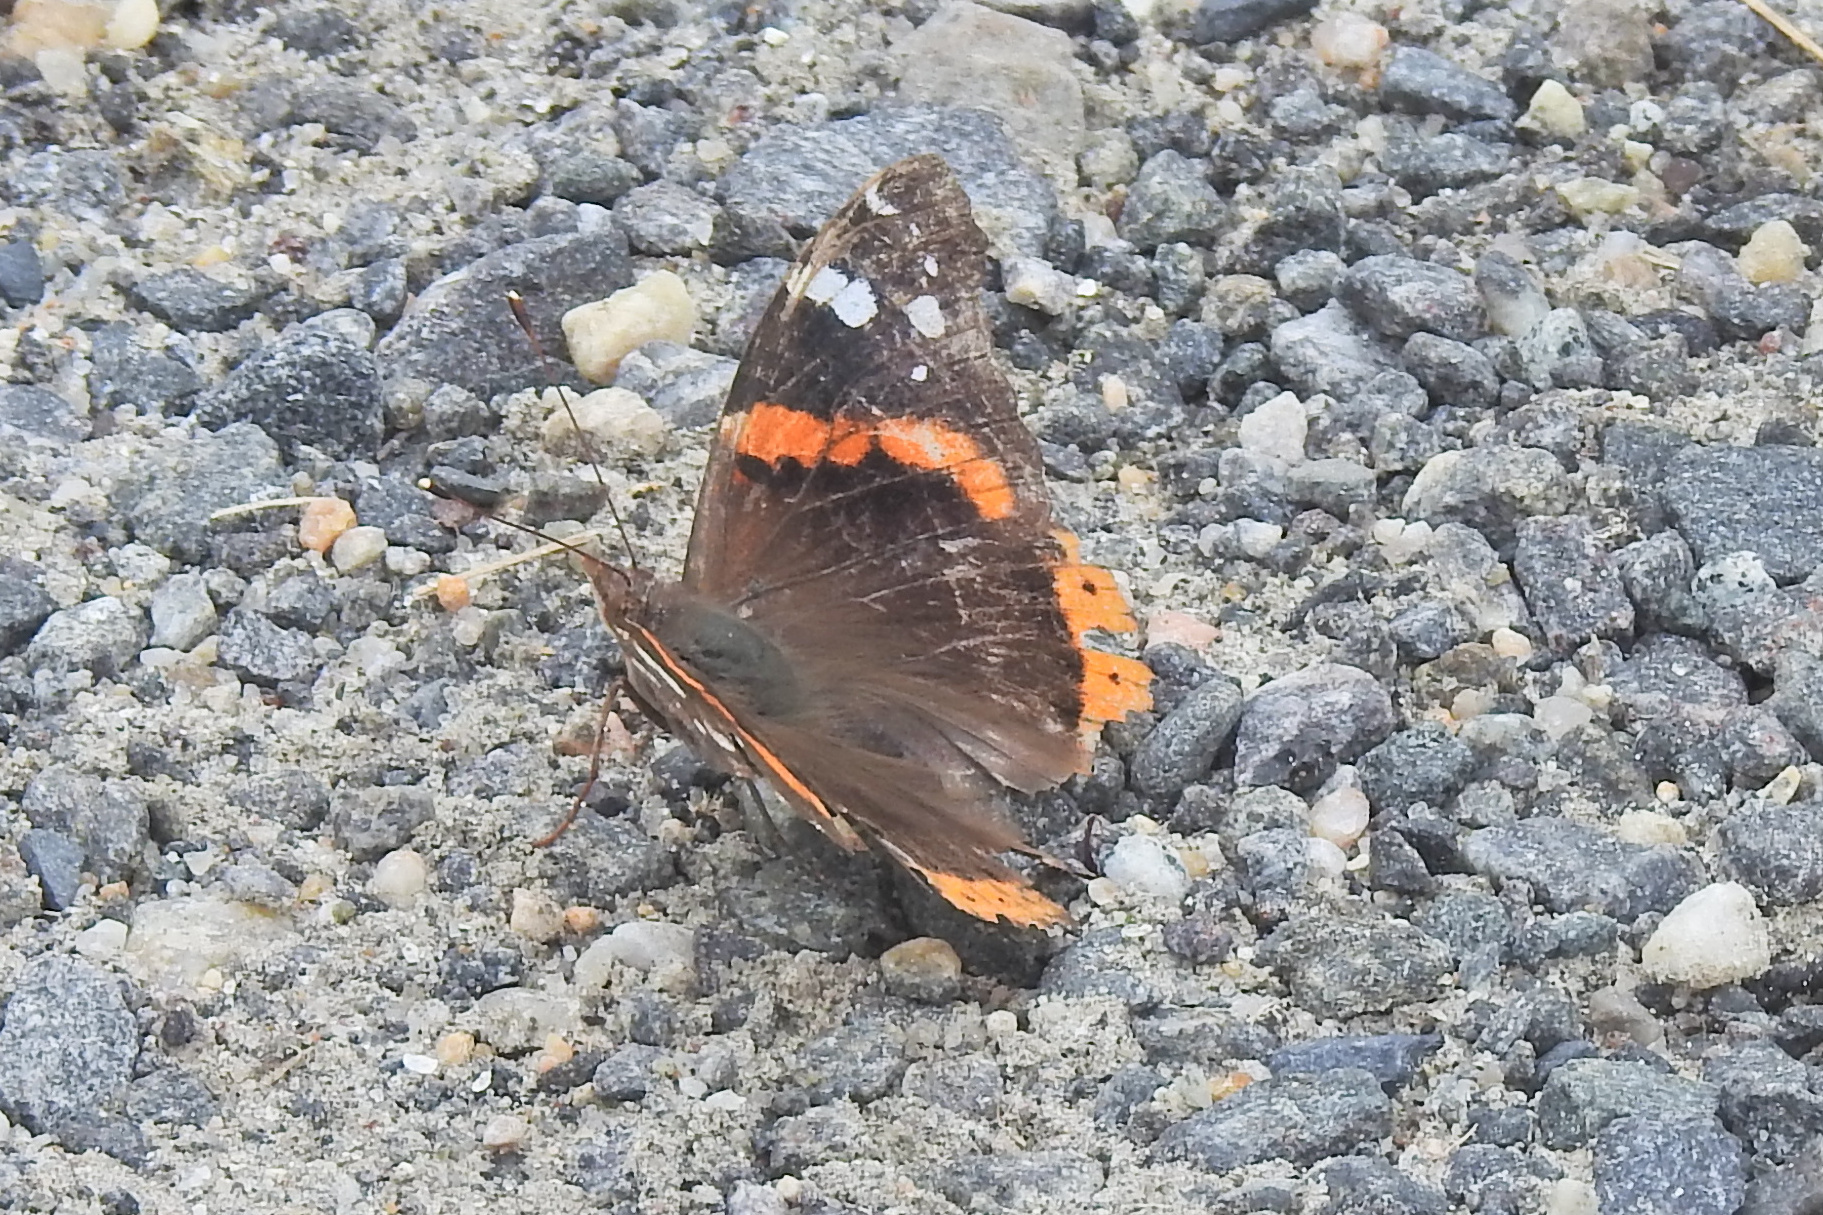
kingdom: Animalia
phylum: Arthropoda
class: Insecta
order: Lepidoptera
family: Nymphalidae
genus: Vanessa
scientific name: Vanessa atalanta
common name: Red admiral
